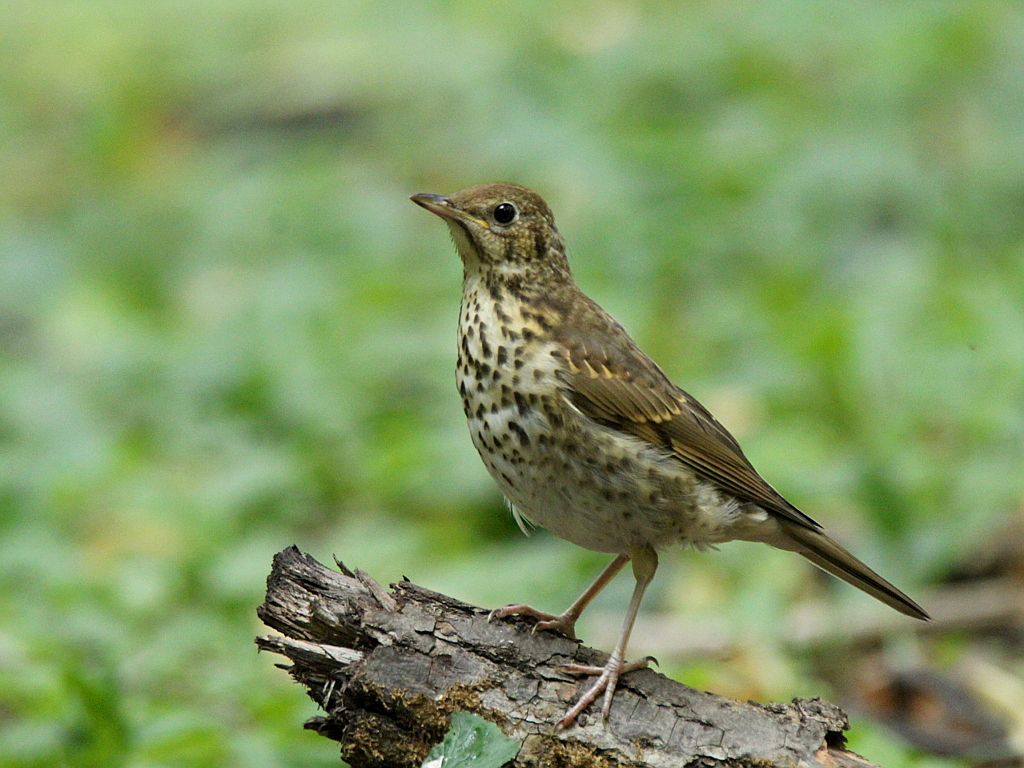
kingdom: Animalia
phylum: Chordata
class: Aves
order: Passeriformes
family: Turdidae
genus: Turdus
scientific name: Turdus philomelos
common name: Song thrush
